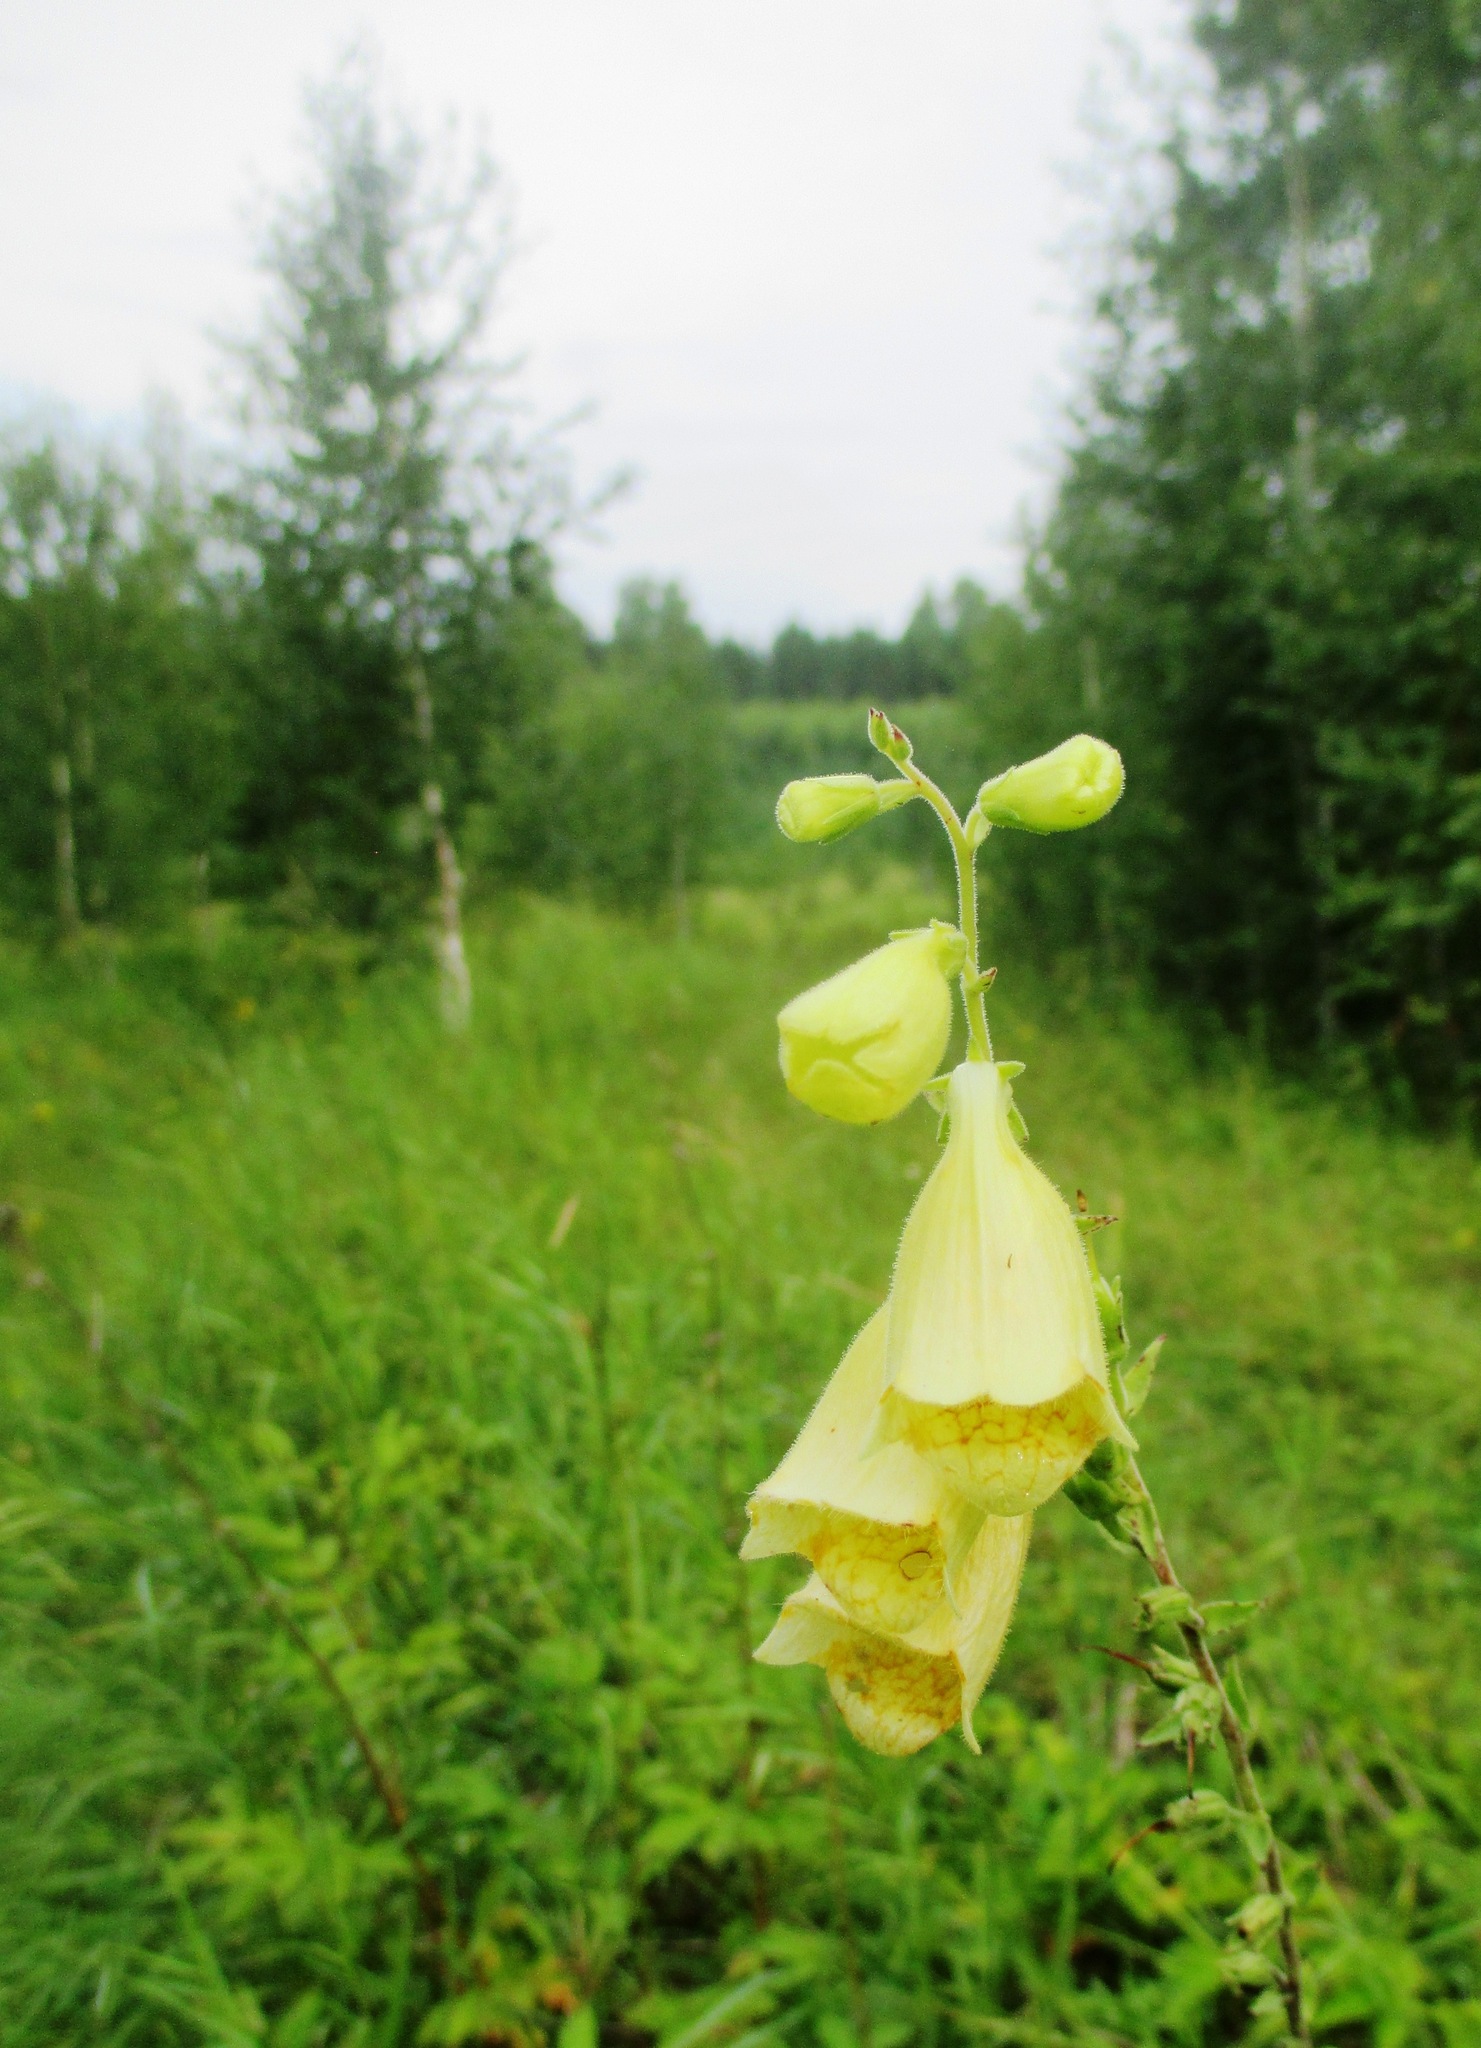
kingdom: Plantae
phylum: Tracheophyta
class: Magnoliopsida
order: Lamiales
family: Plantaginaceae
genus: Digitalis
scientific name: Digitalis grandiflora
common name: Yellow foxglove
